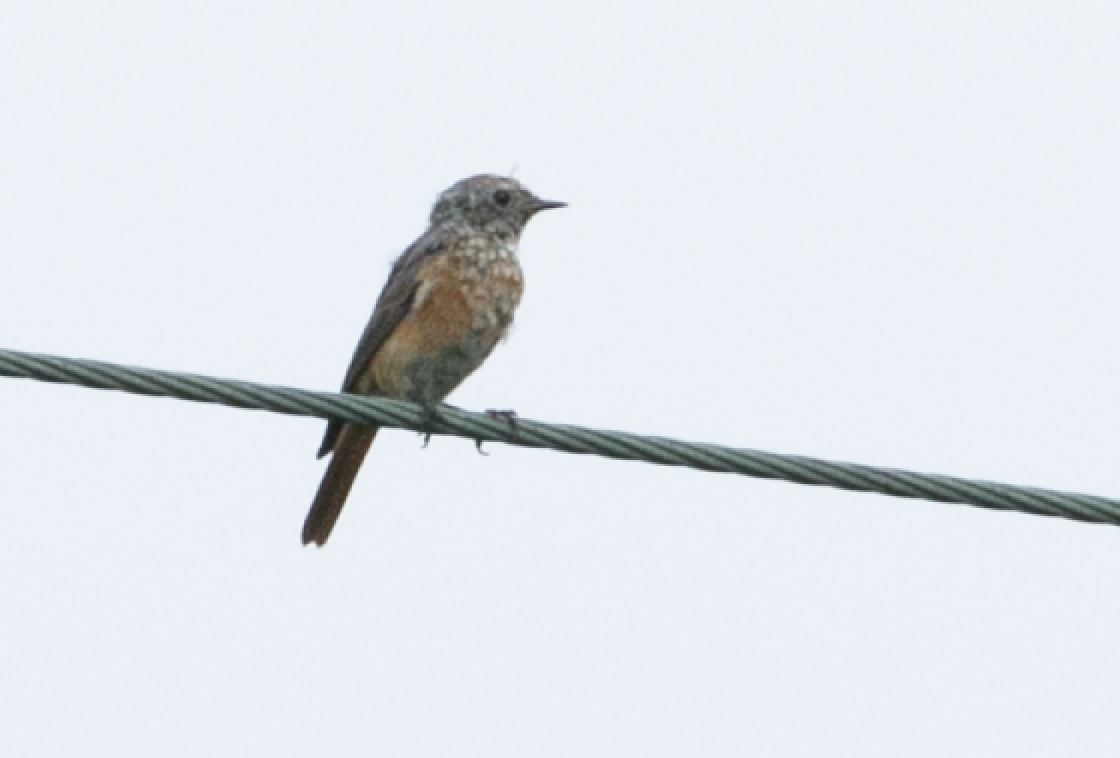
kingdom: Animalia
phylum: Chordata
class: Aves
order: Passeriformes
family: Muscicapidae
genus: Phoenicurus
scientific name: Phoenicurus phoenicurus
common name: Common redstart
